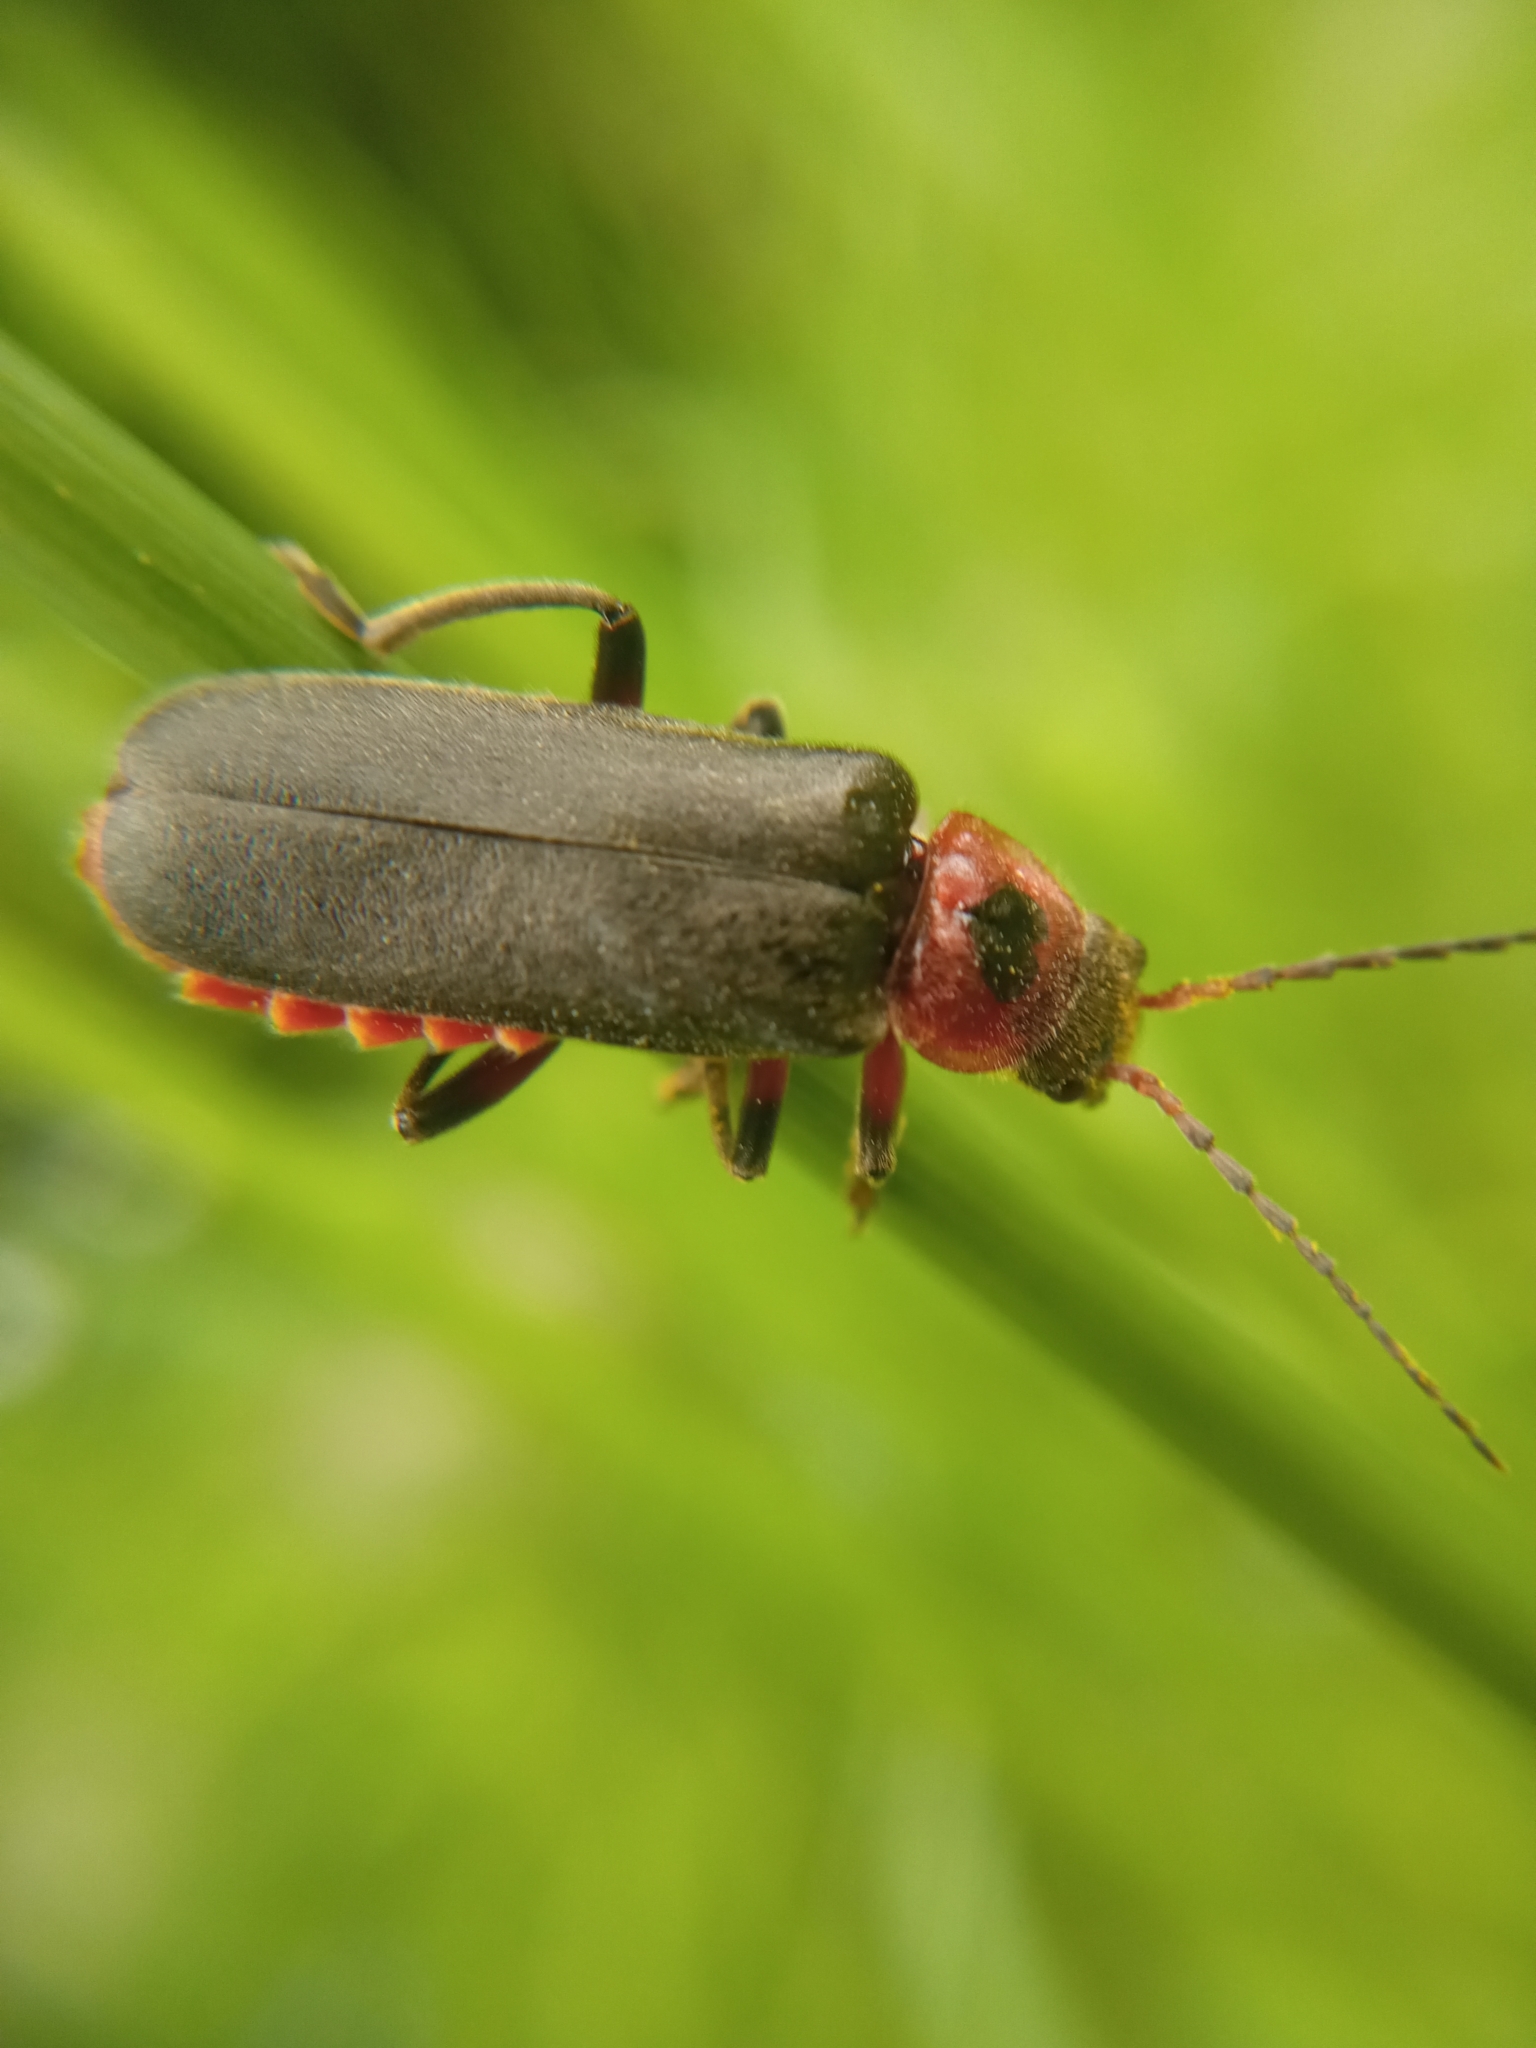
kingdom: Animalia
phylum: Arthropoda
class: Insecta
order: Coleoptera
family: Cantharidae
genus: Cantharis
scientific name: Cantharis rustica
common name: Soldier beetle
